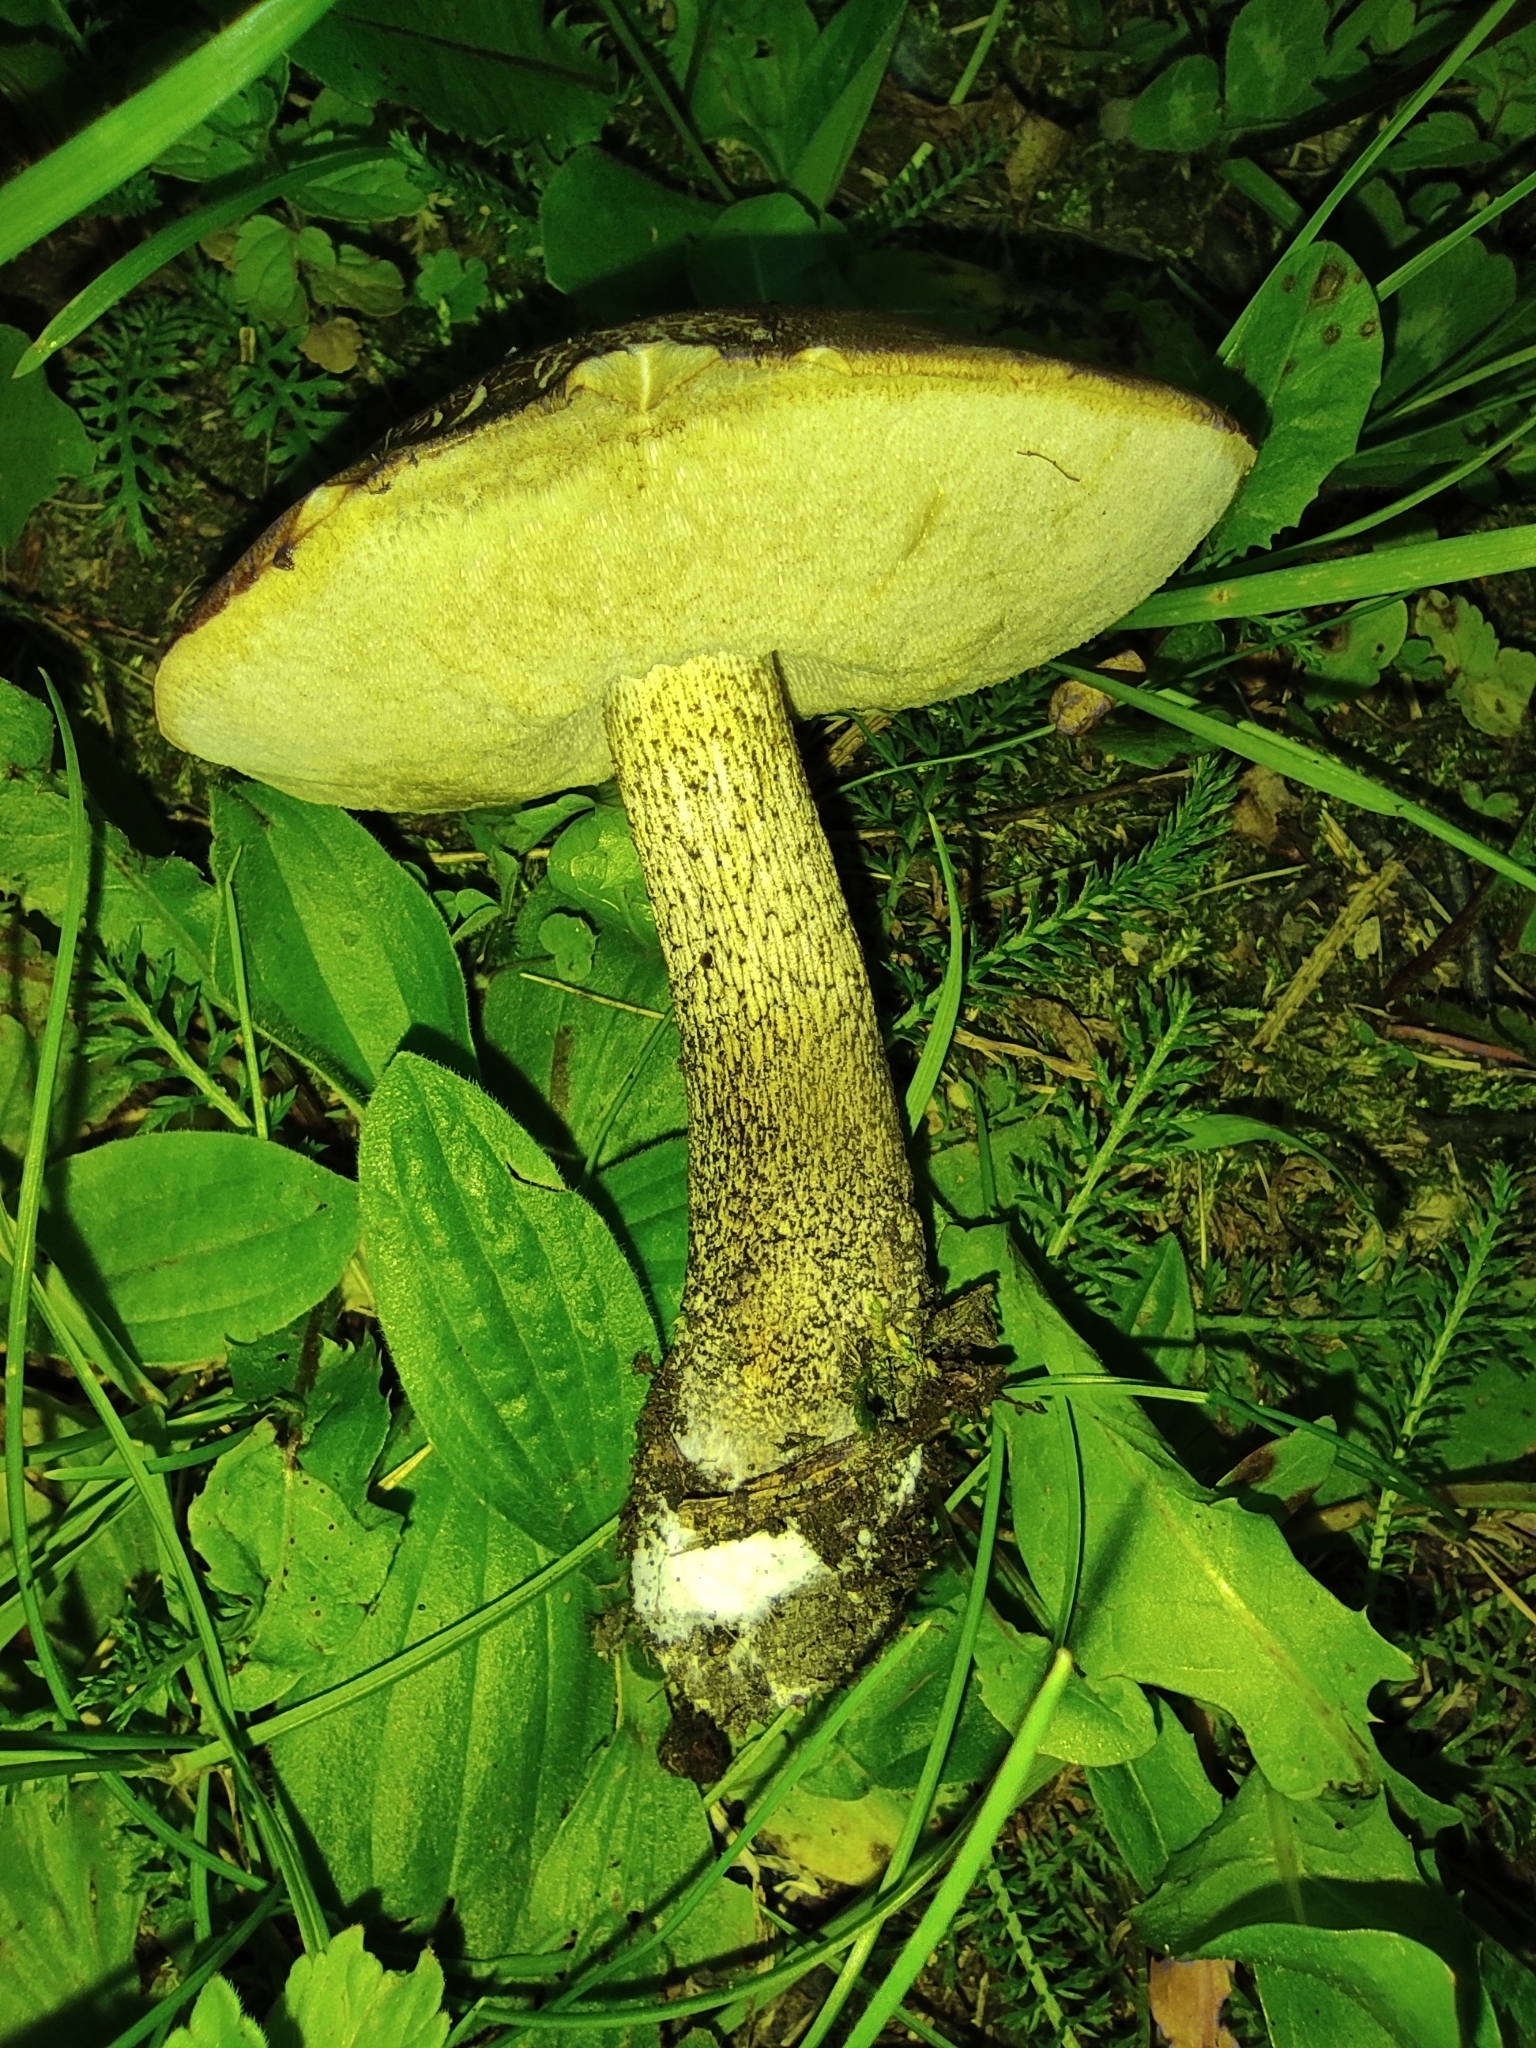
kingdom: Fungi
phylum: Basidiomycota
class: Agaricomycetes
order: Boletales
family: Boletaceae
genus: Leccinum
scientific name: Leccinum scabrum
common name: Blushing bolete
